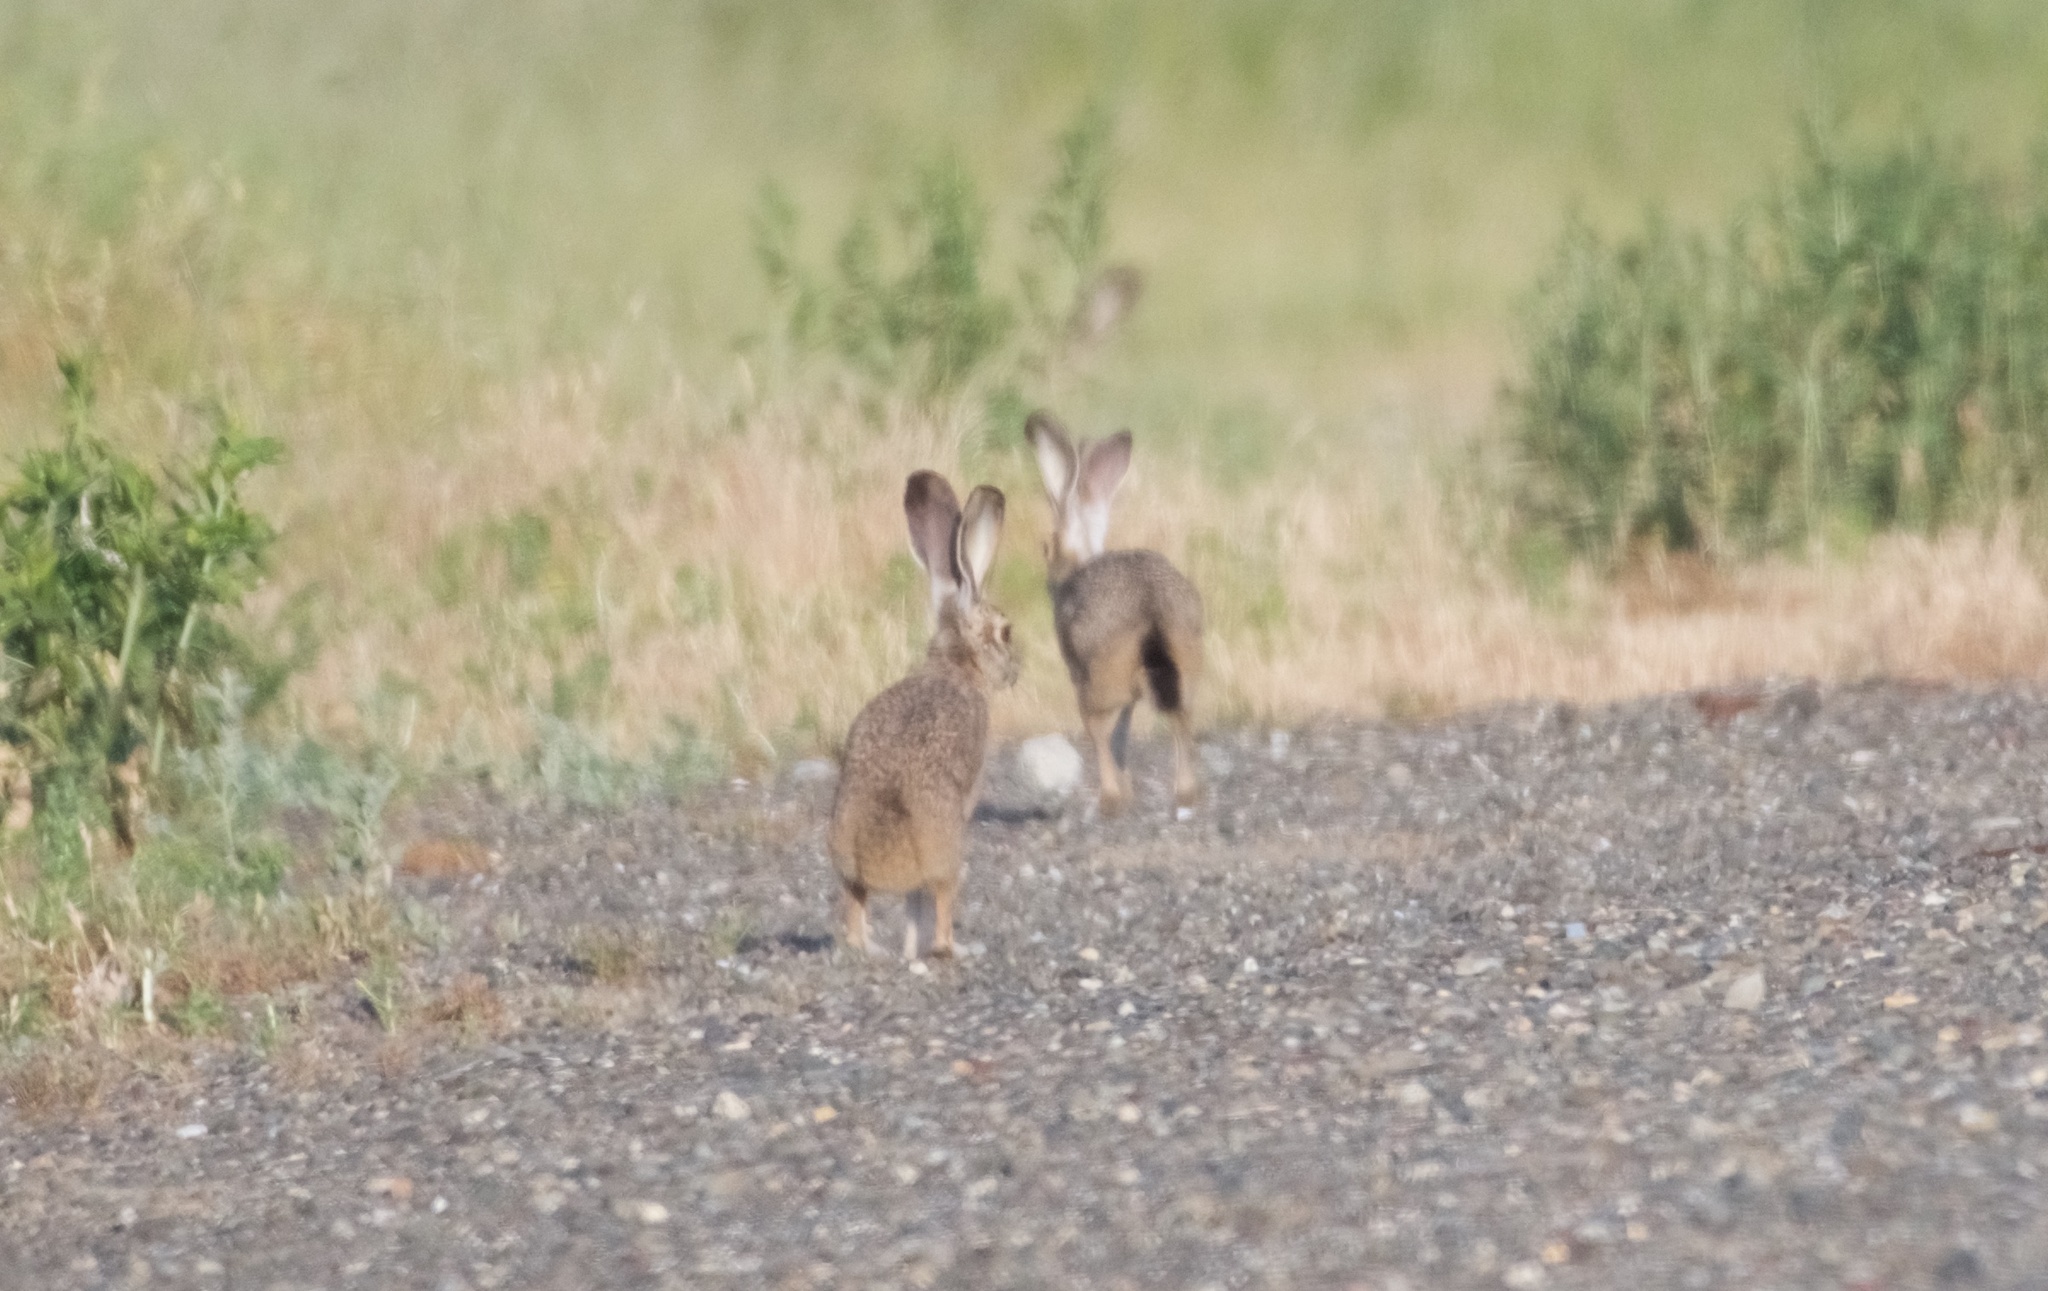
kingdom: Animalia
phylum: Chordata
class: Mammalia
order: Lagomorpha
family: Leporidae
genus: Lepus
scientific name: Lepus californicus
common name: Black-tailed jackrabbit
